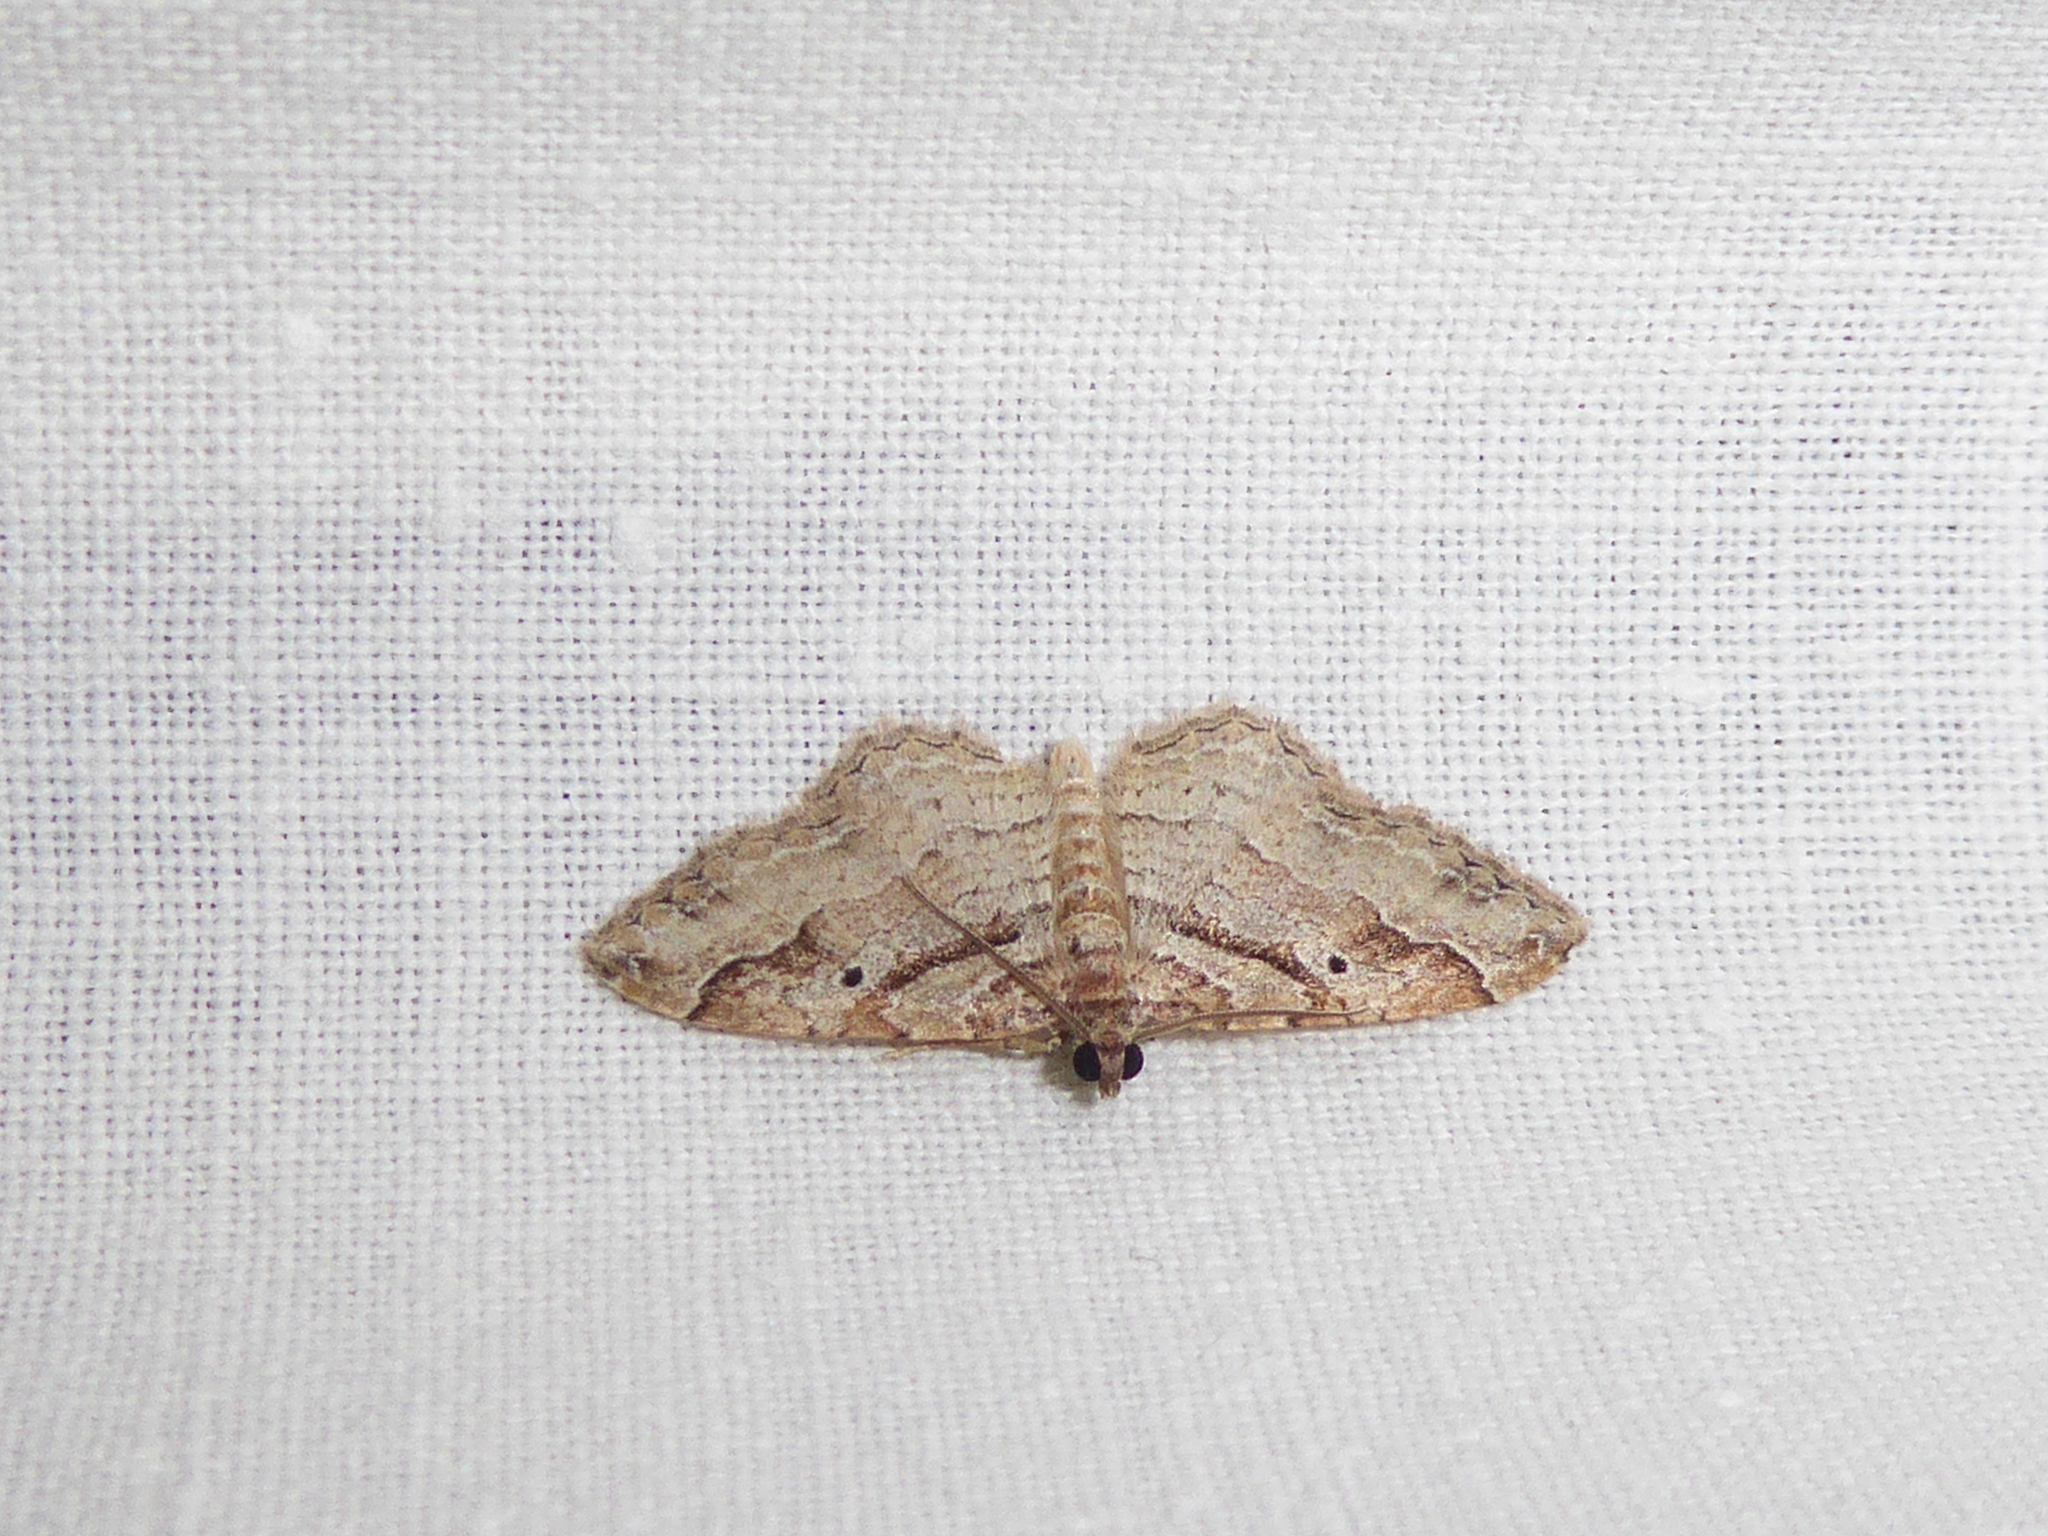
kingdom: Animalia
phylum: Arthropoda
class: Insecta
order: Lepidoptera
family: Geometridae
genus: Costaconvexa
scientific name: Costaconvexa centrostrigaria
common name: Bent-line carpet
